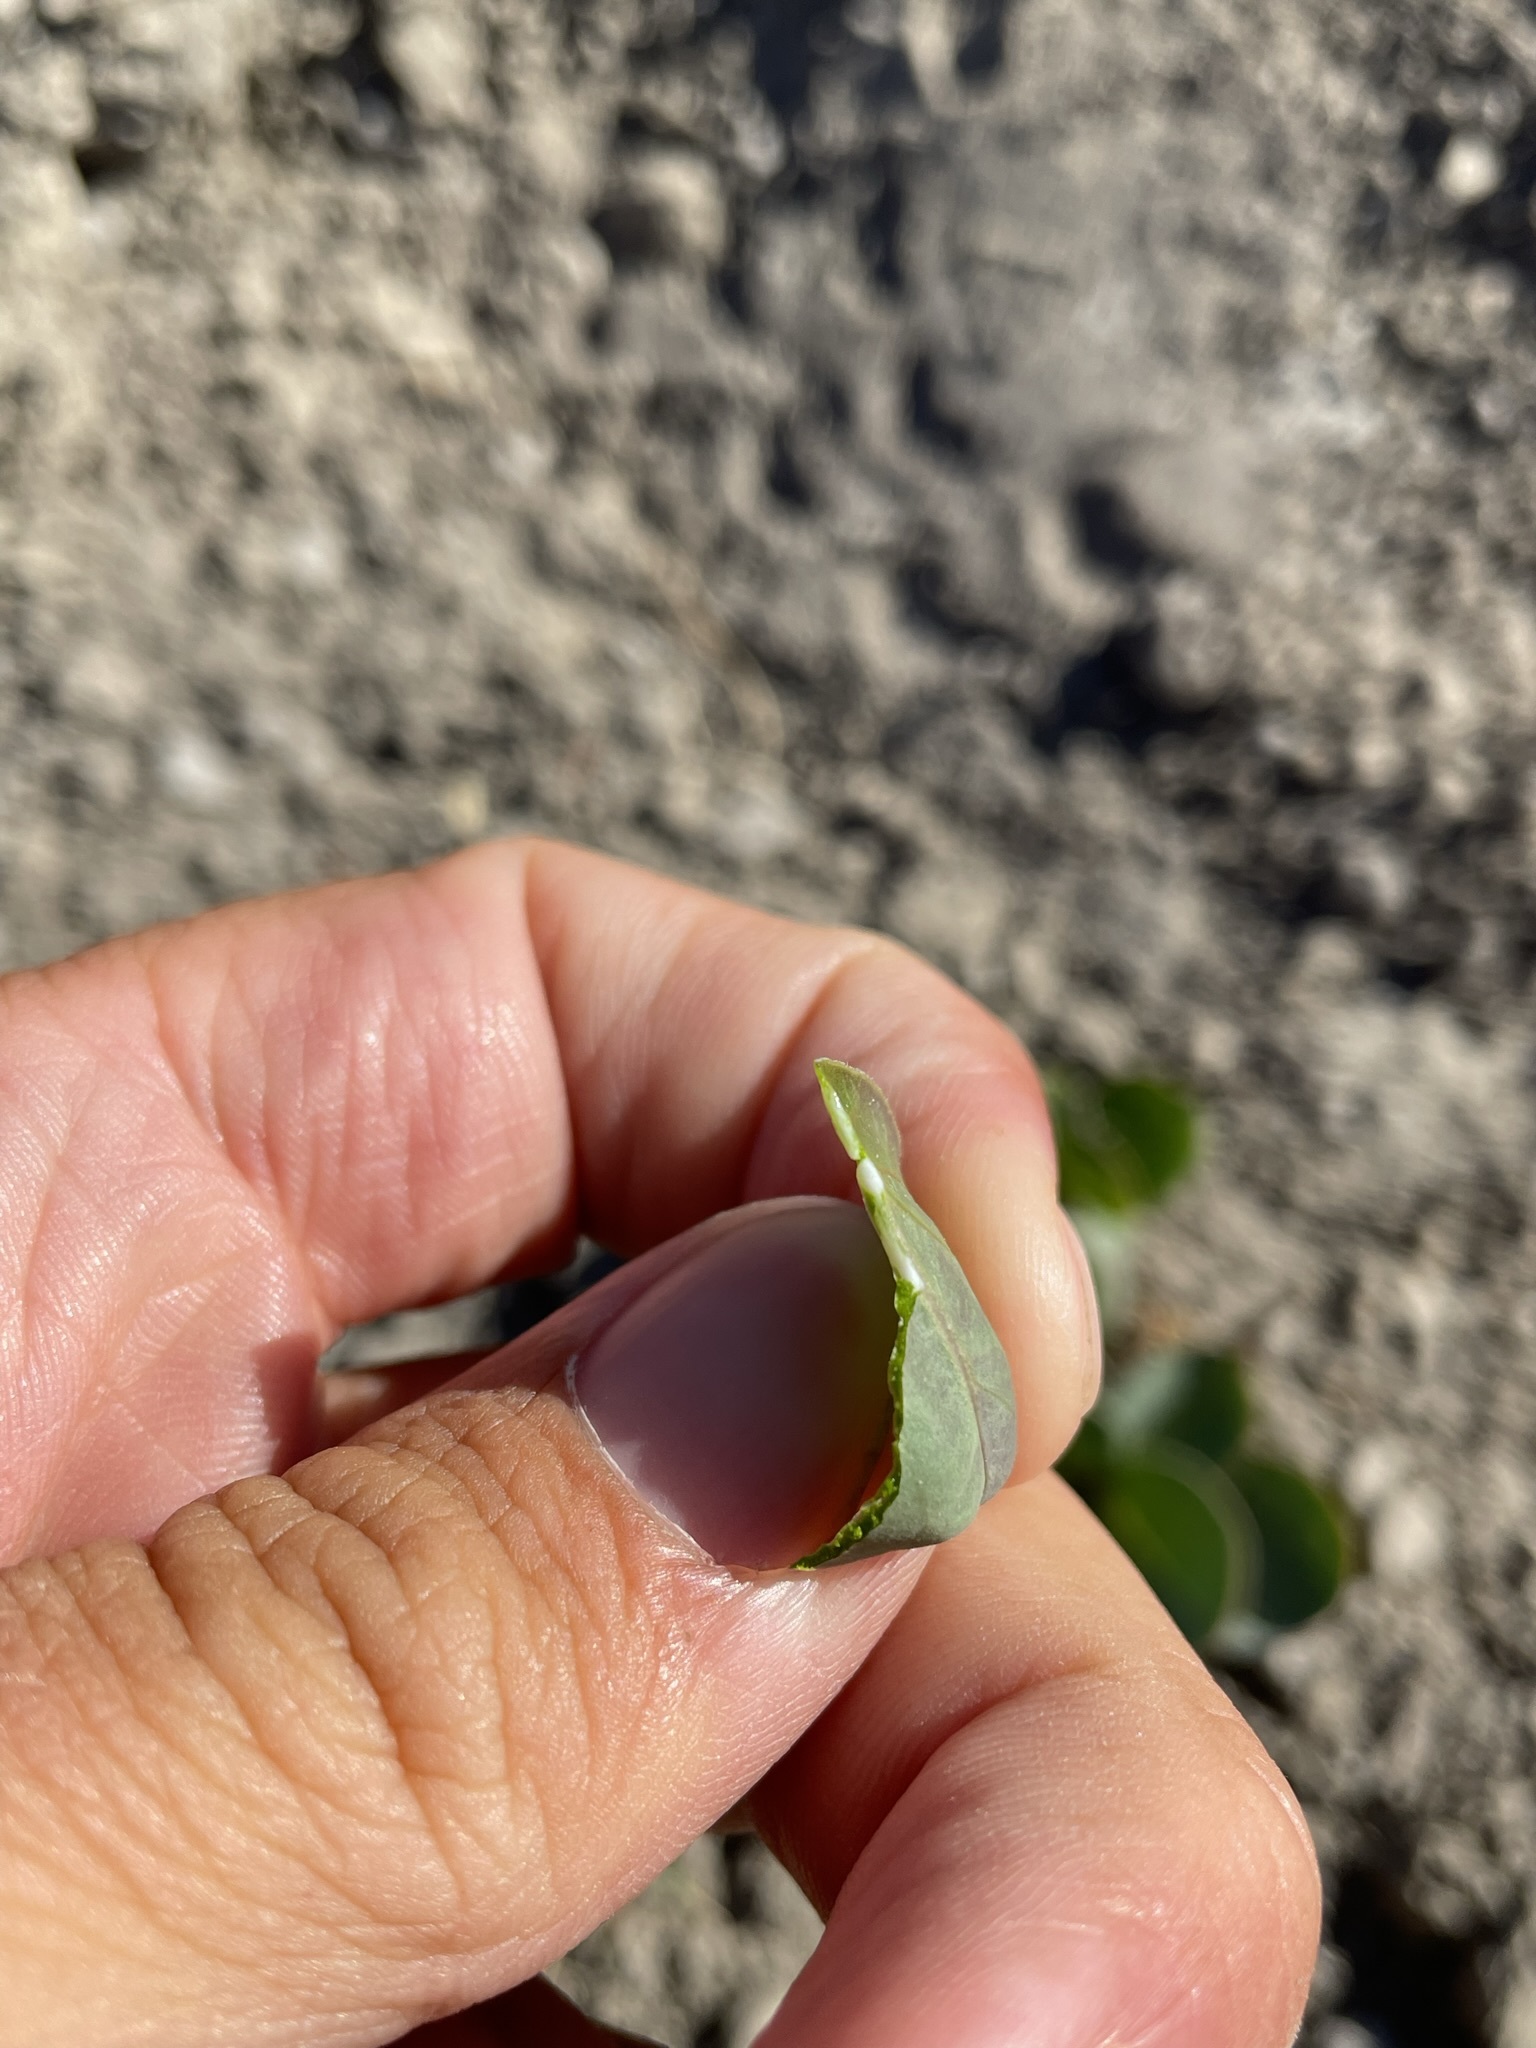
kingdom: Plantae
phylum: Tracheophyta
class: Magnoliopsida
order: Gentianales
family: Apocynaceae
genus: Asclepias
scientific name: Asclepias cryptoceras
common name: Humboldt mountains milkweed
